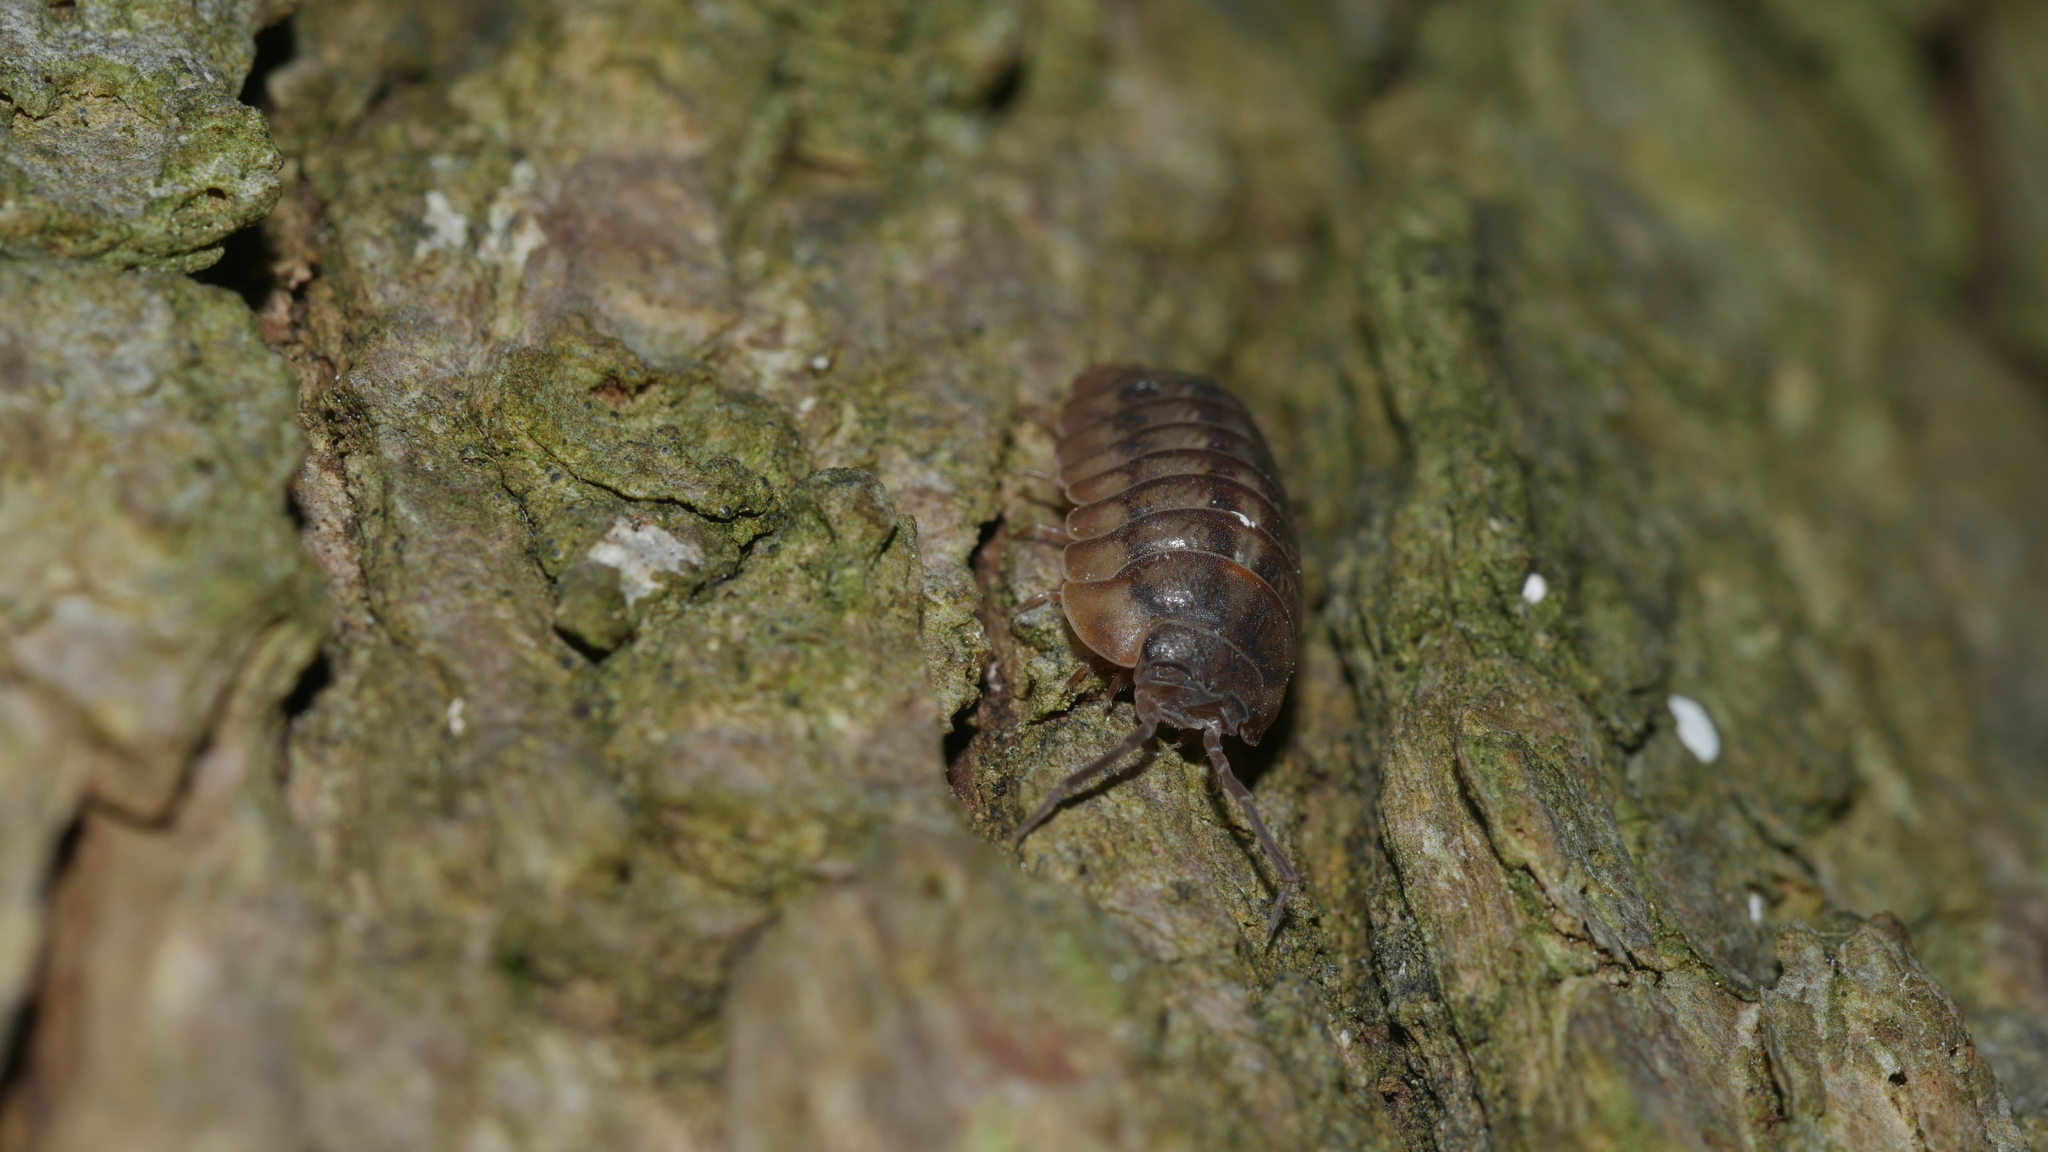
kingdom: Animalia
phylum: Arthropoda
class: Malacostraca
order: Isopoda
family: Armadillidiidae
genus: Armadillidium
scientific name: Armadillidium nasatum
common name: Isopod
